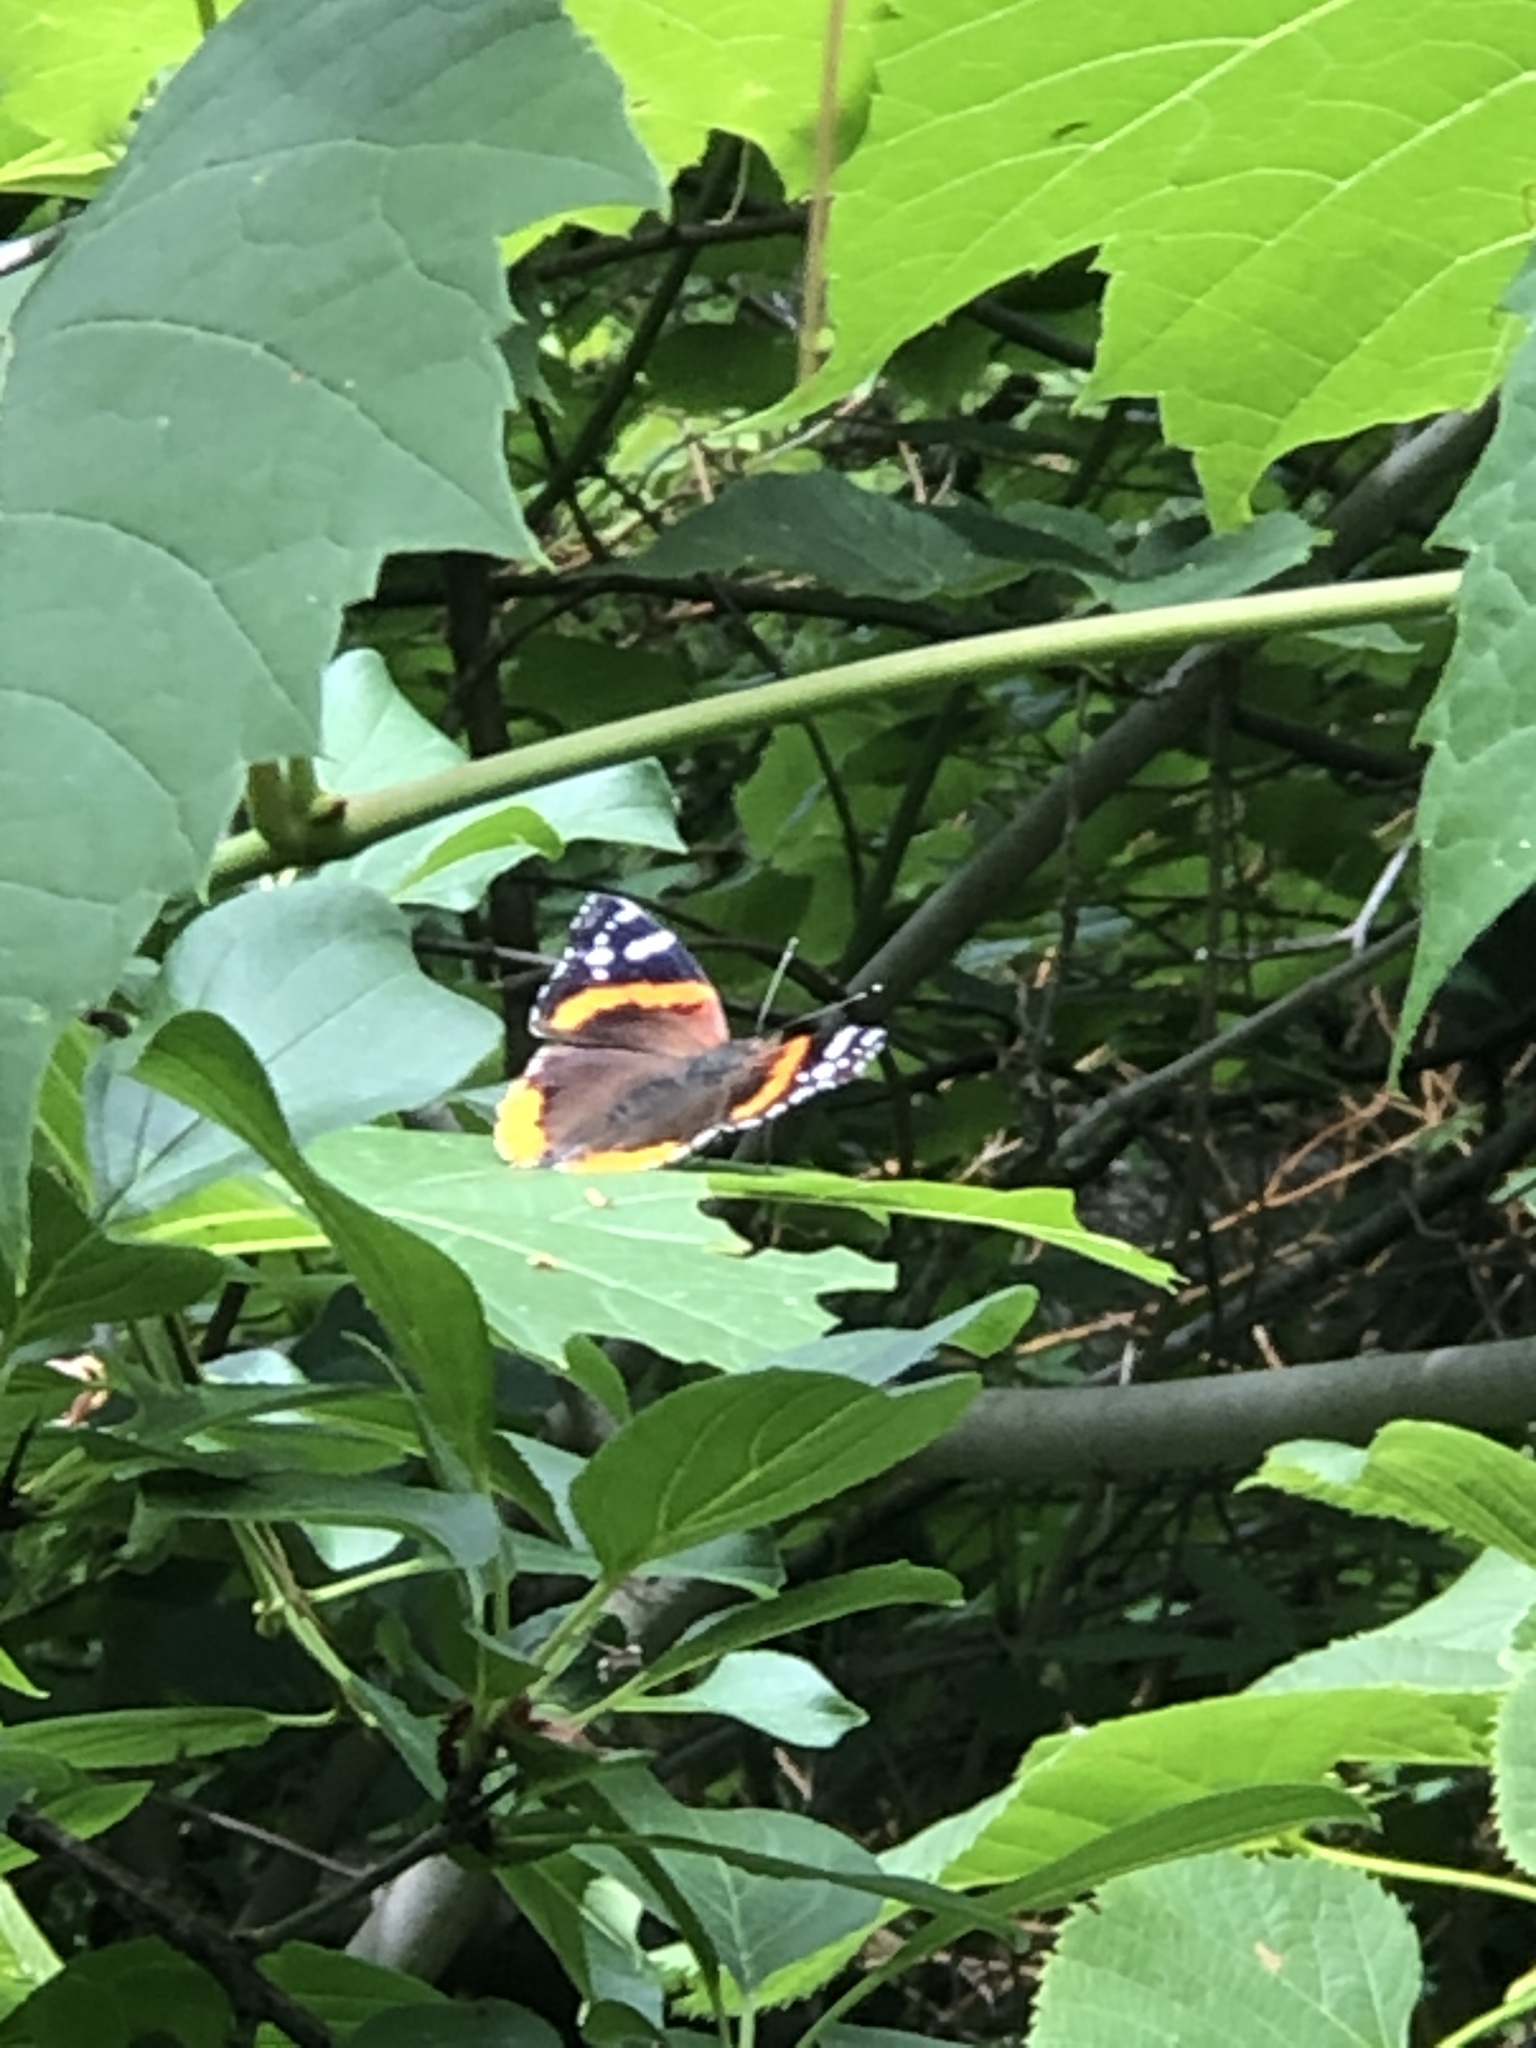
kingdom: Animalia
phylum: Arthropoda
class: Insecta
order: Lepidoptera
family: Nymphalidae
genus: Vanessa
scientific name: Vanessa atalanta
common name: Red admiral
